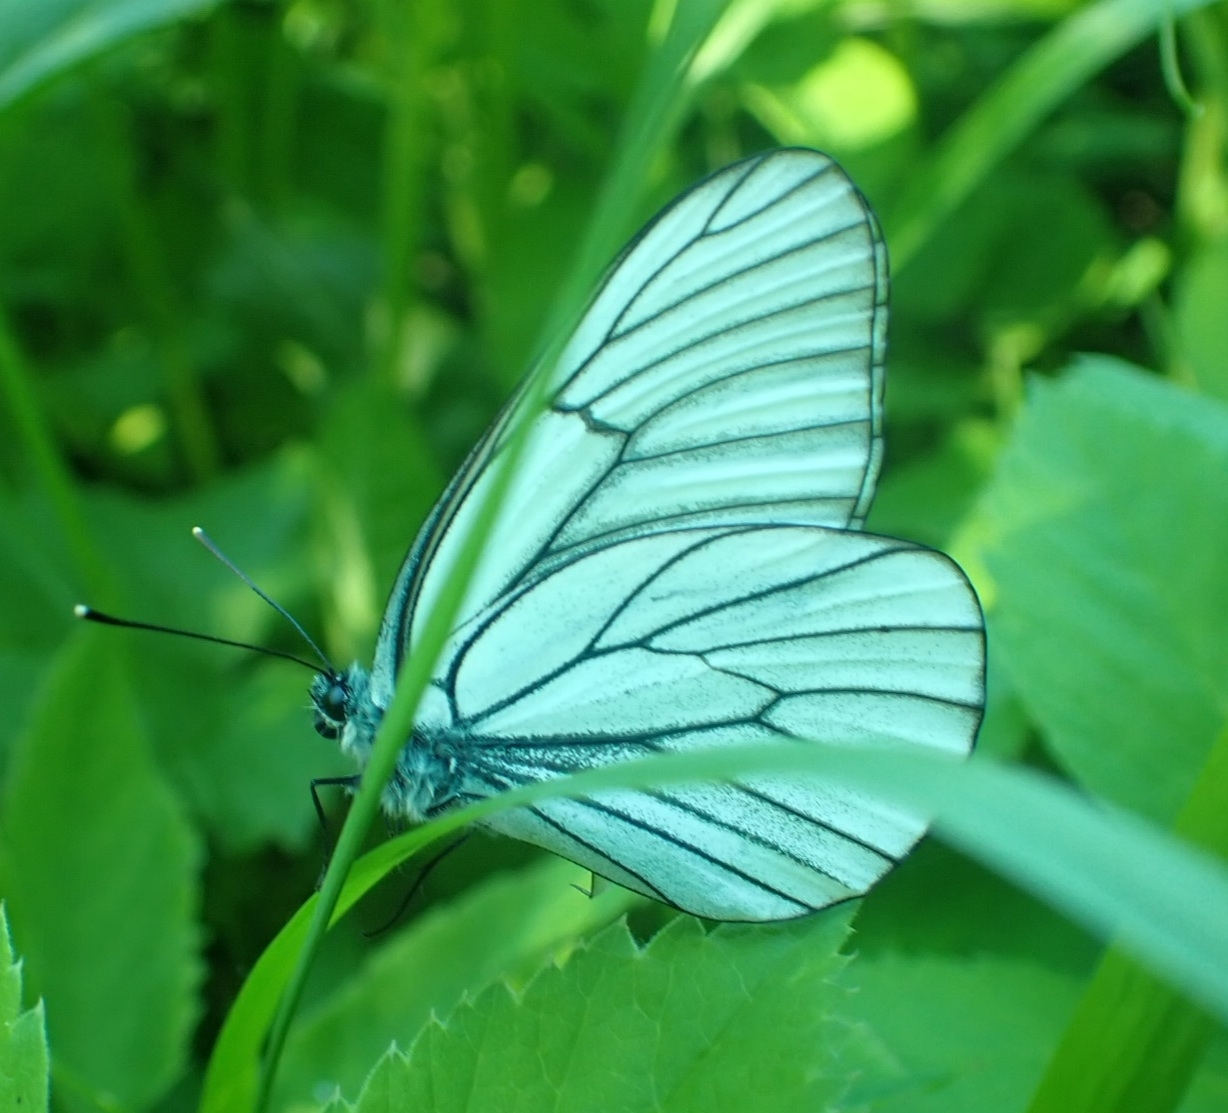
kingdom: Animalia
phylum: Arthropoda
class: Insecta
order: Lepidoptera
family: Pieridae
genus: Aporia
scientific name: Aporia crataegi
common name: Black-veined white
